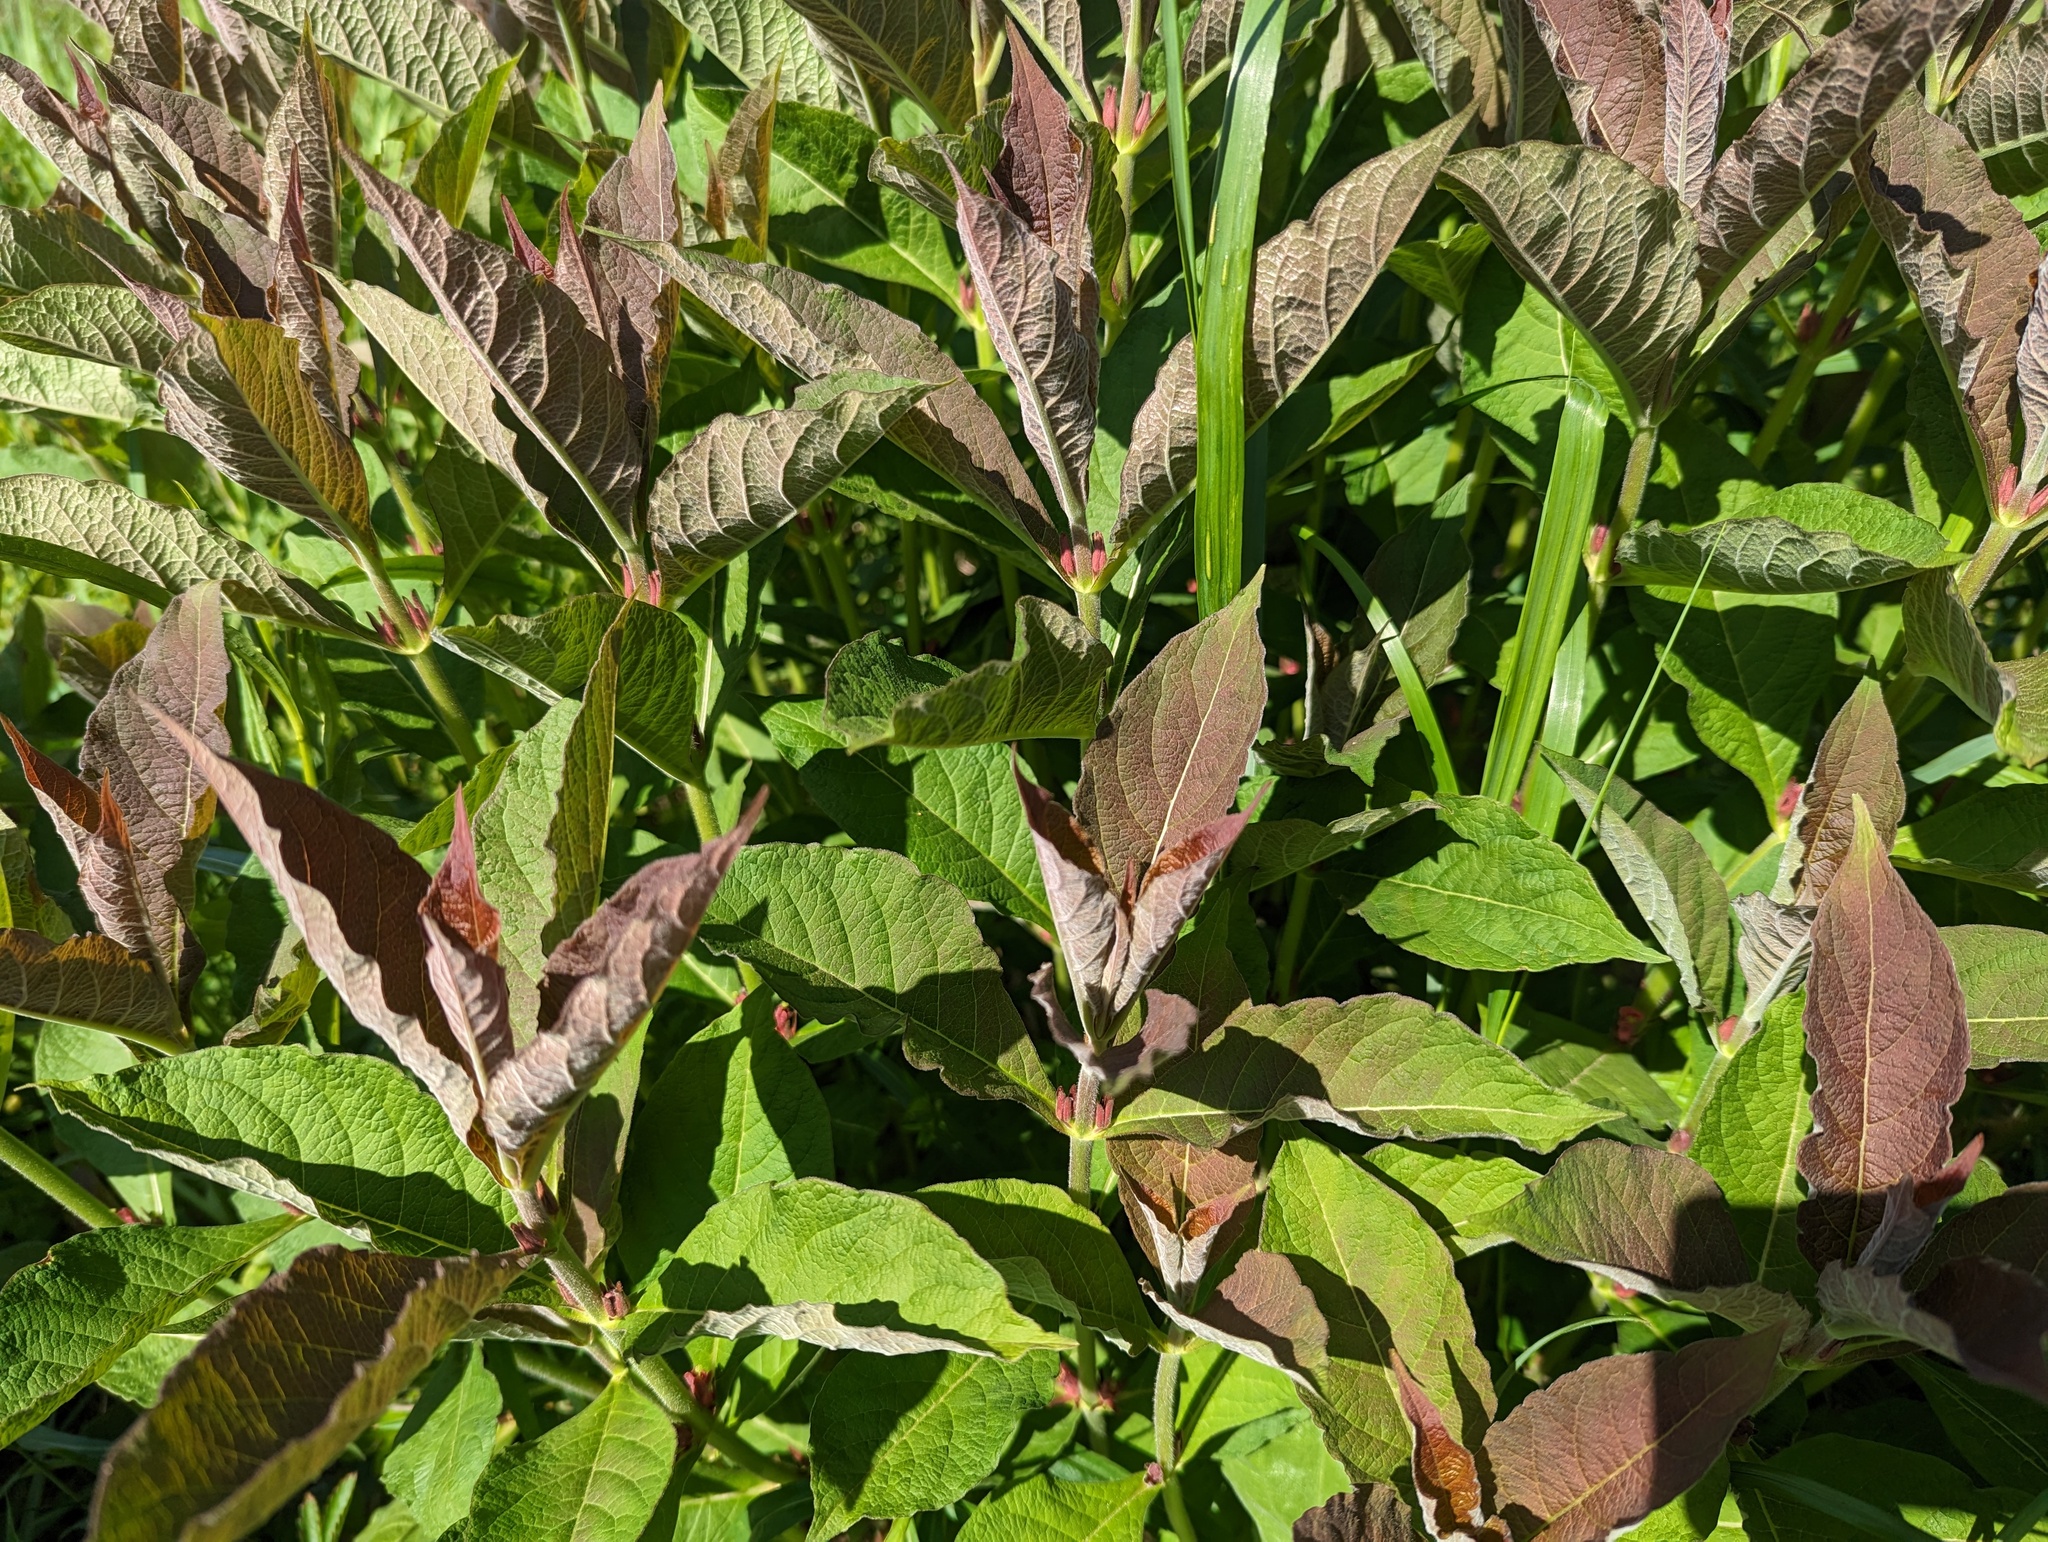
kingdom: Plantae
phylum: Tracheophyta
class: Magnoliopsida
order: Dipsacales
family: Caprifoliaceae
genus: Triosteum
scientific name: Triosteum aurantiacum
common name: Coffee tinker's-weed
